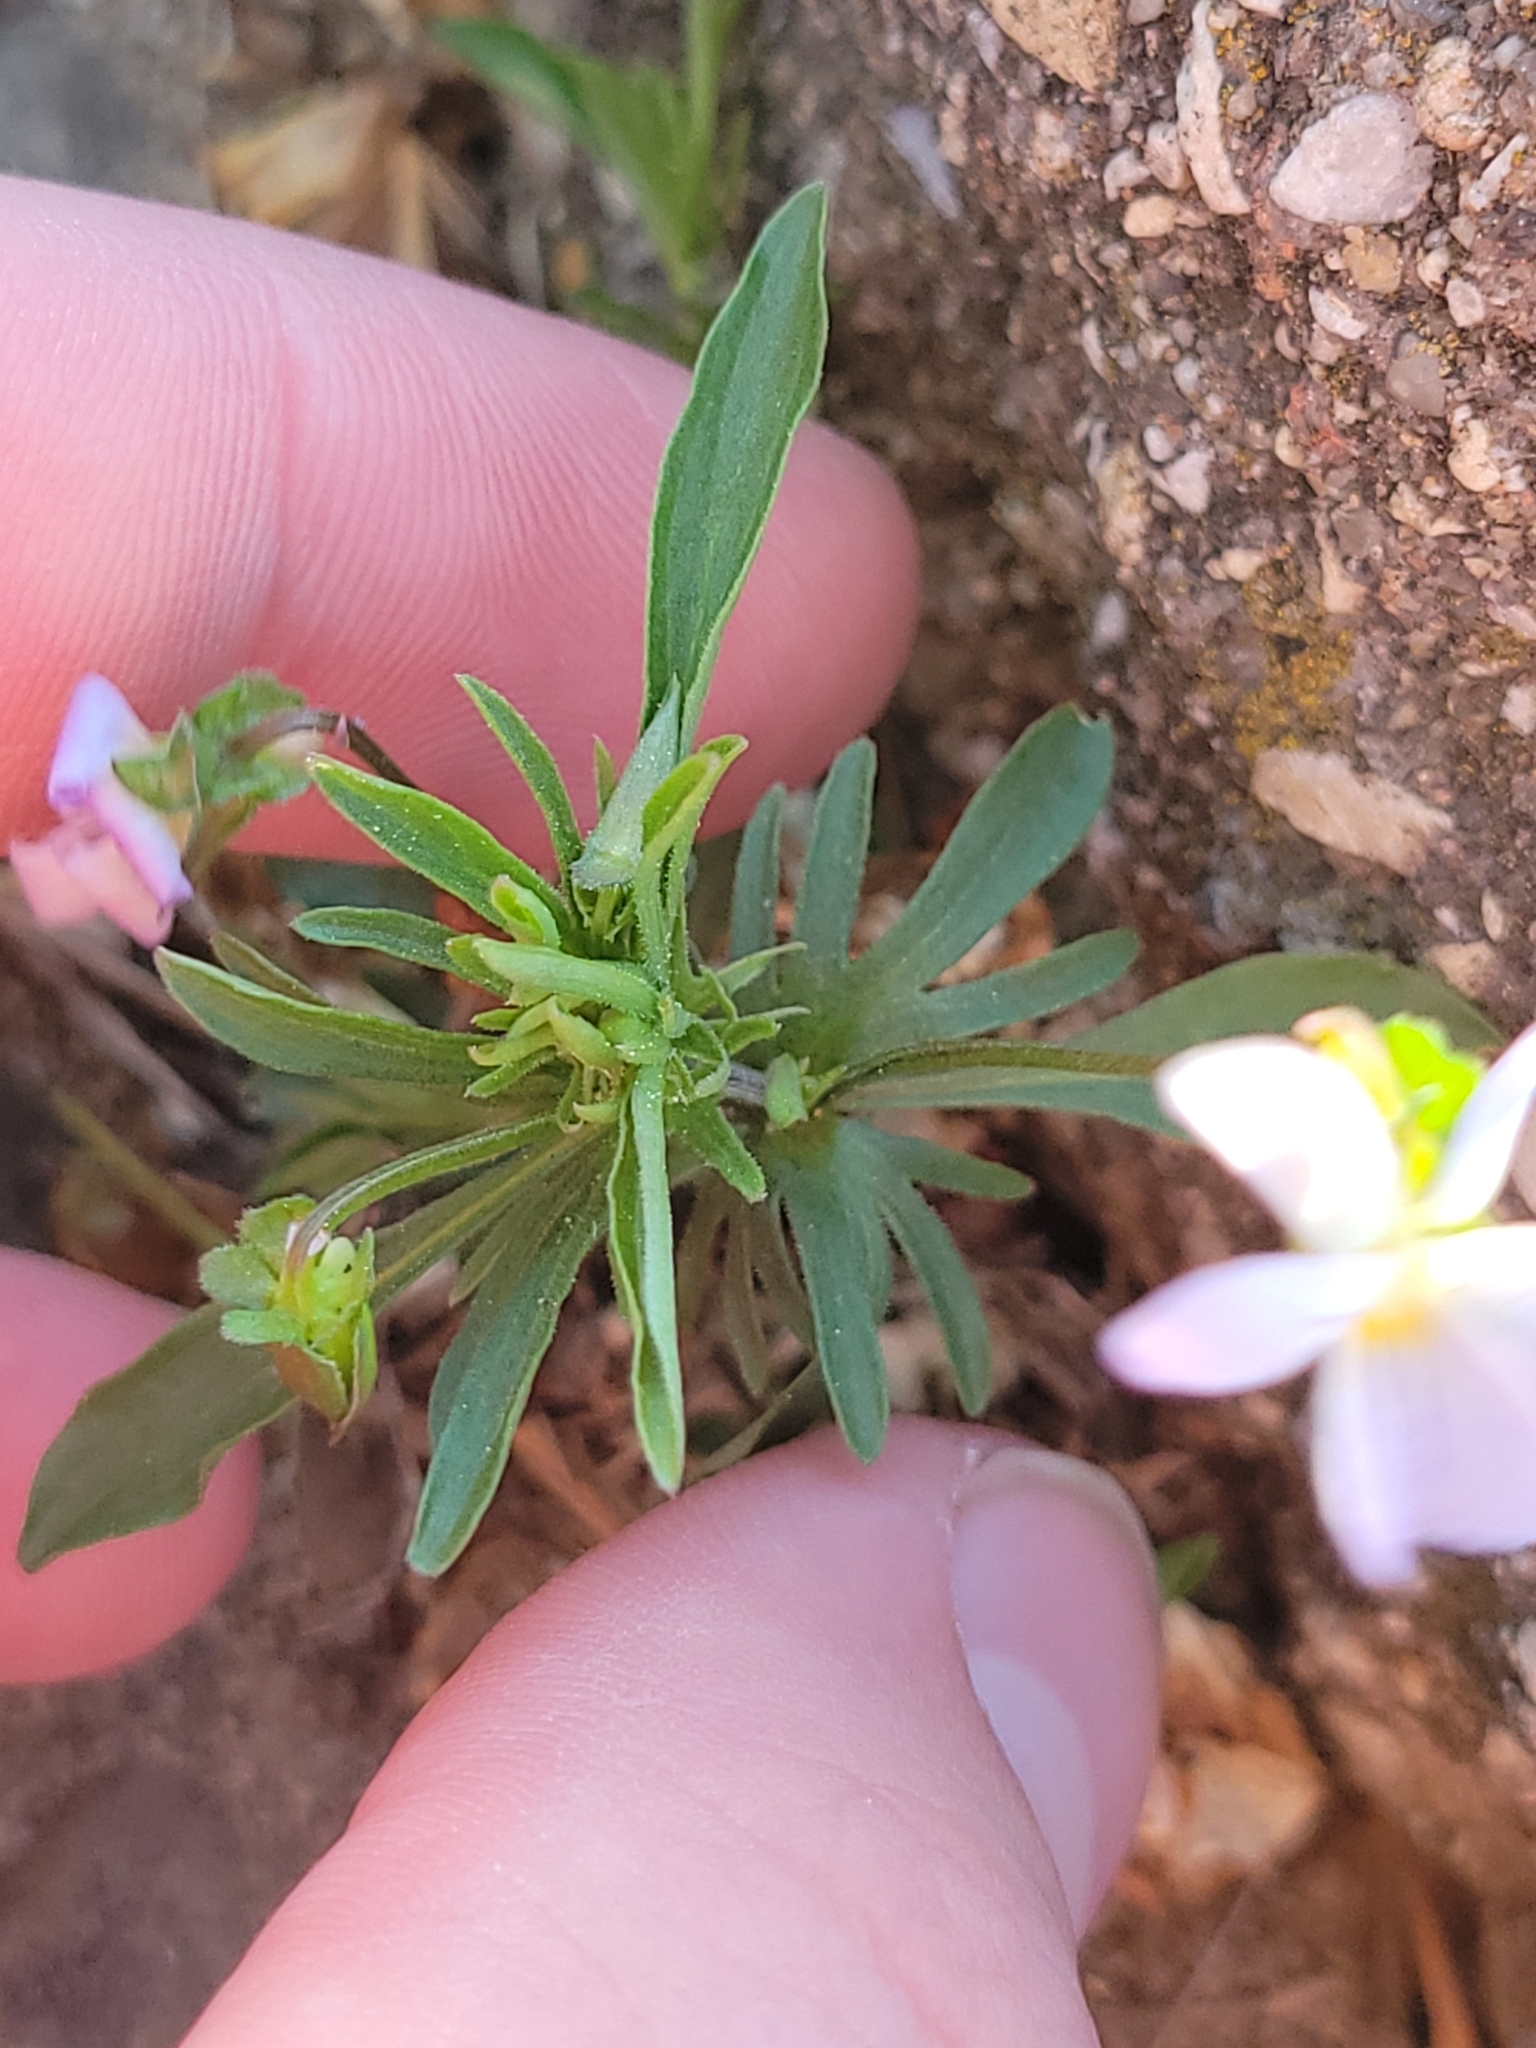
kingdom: Plantae
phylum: Tracheophyta
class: Magnoliopsida
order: Malpighiales
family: Violaceae
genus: Viola
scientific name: Viola rafinesquei
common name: American field pansy
